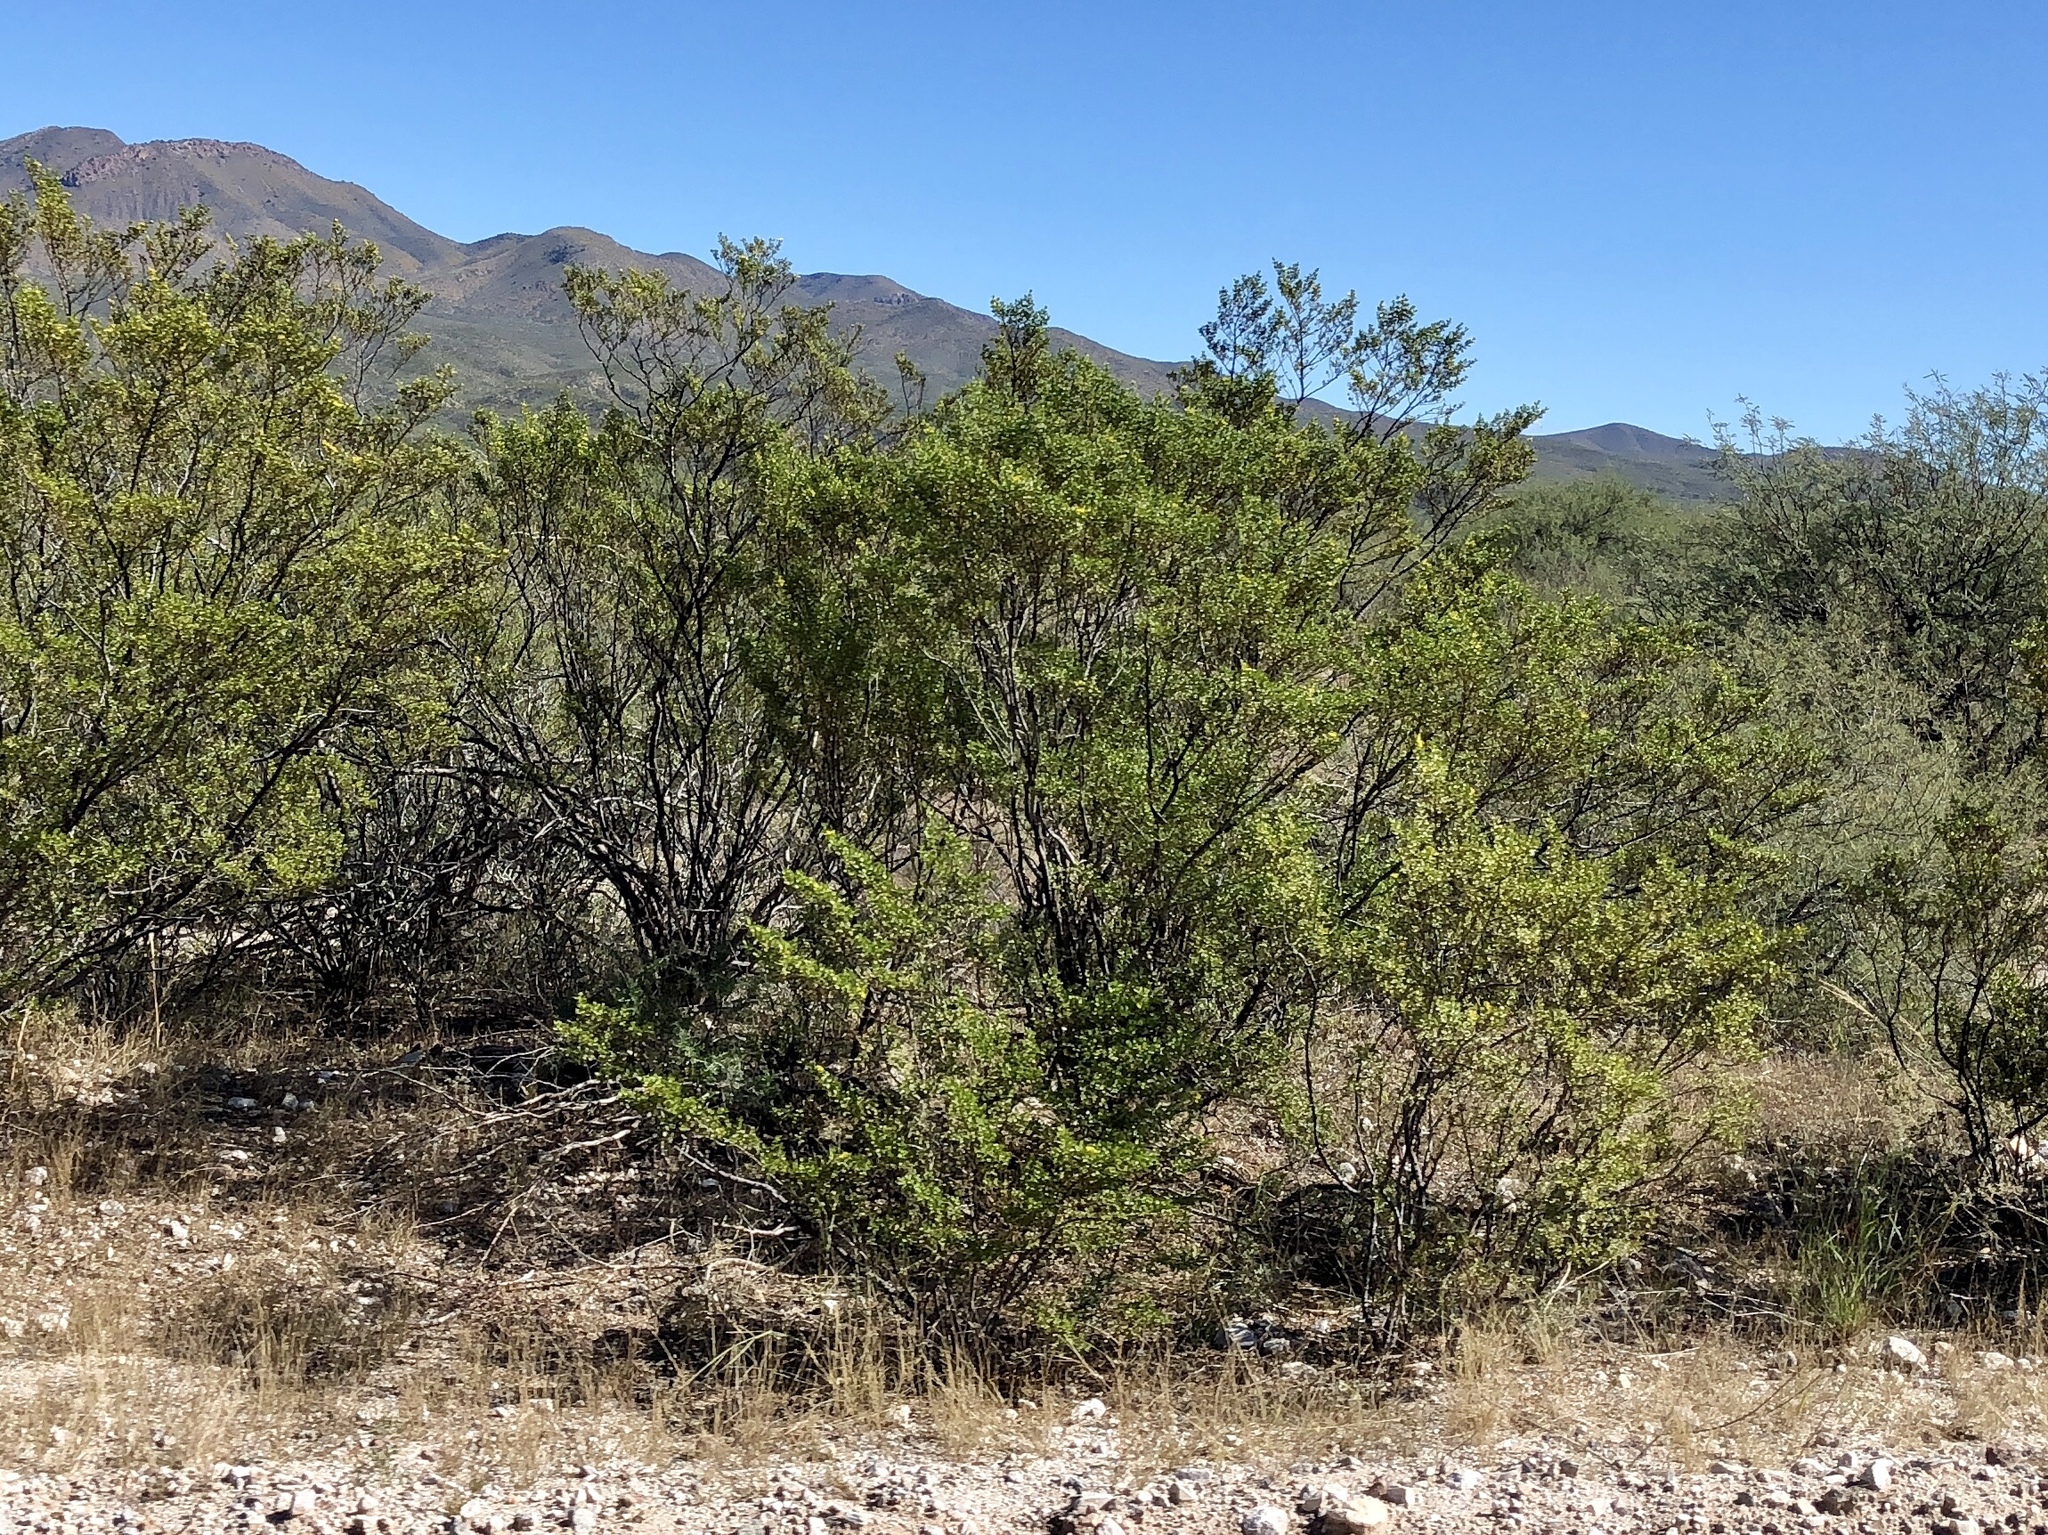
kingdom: Plantae
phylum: Tracheophyta
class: Magnoliopsida
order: Zygophyllales
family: Zygophyllaceae
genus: Larrea
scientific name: Larrea tridentata
